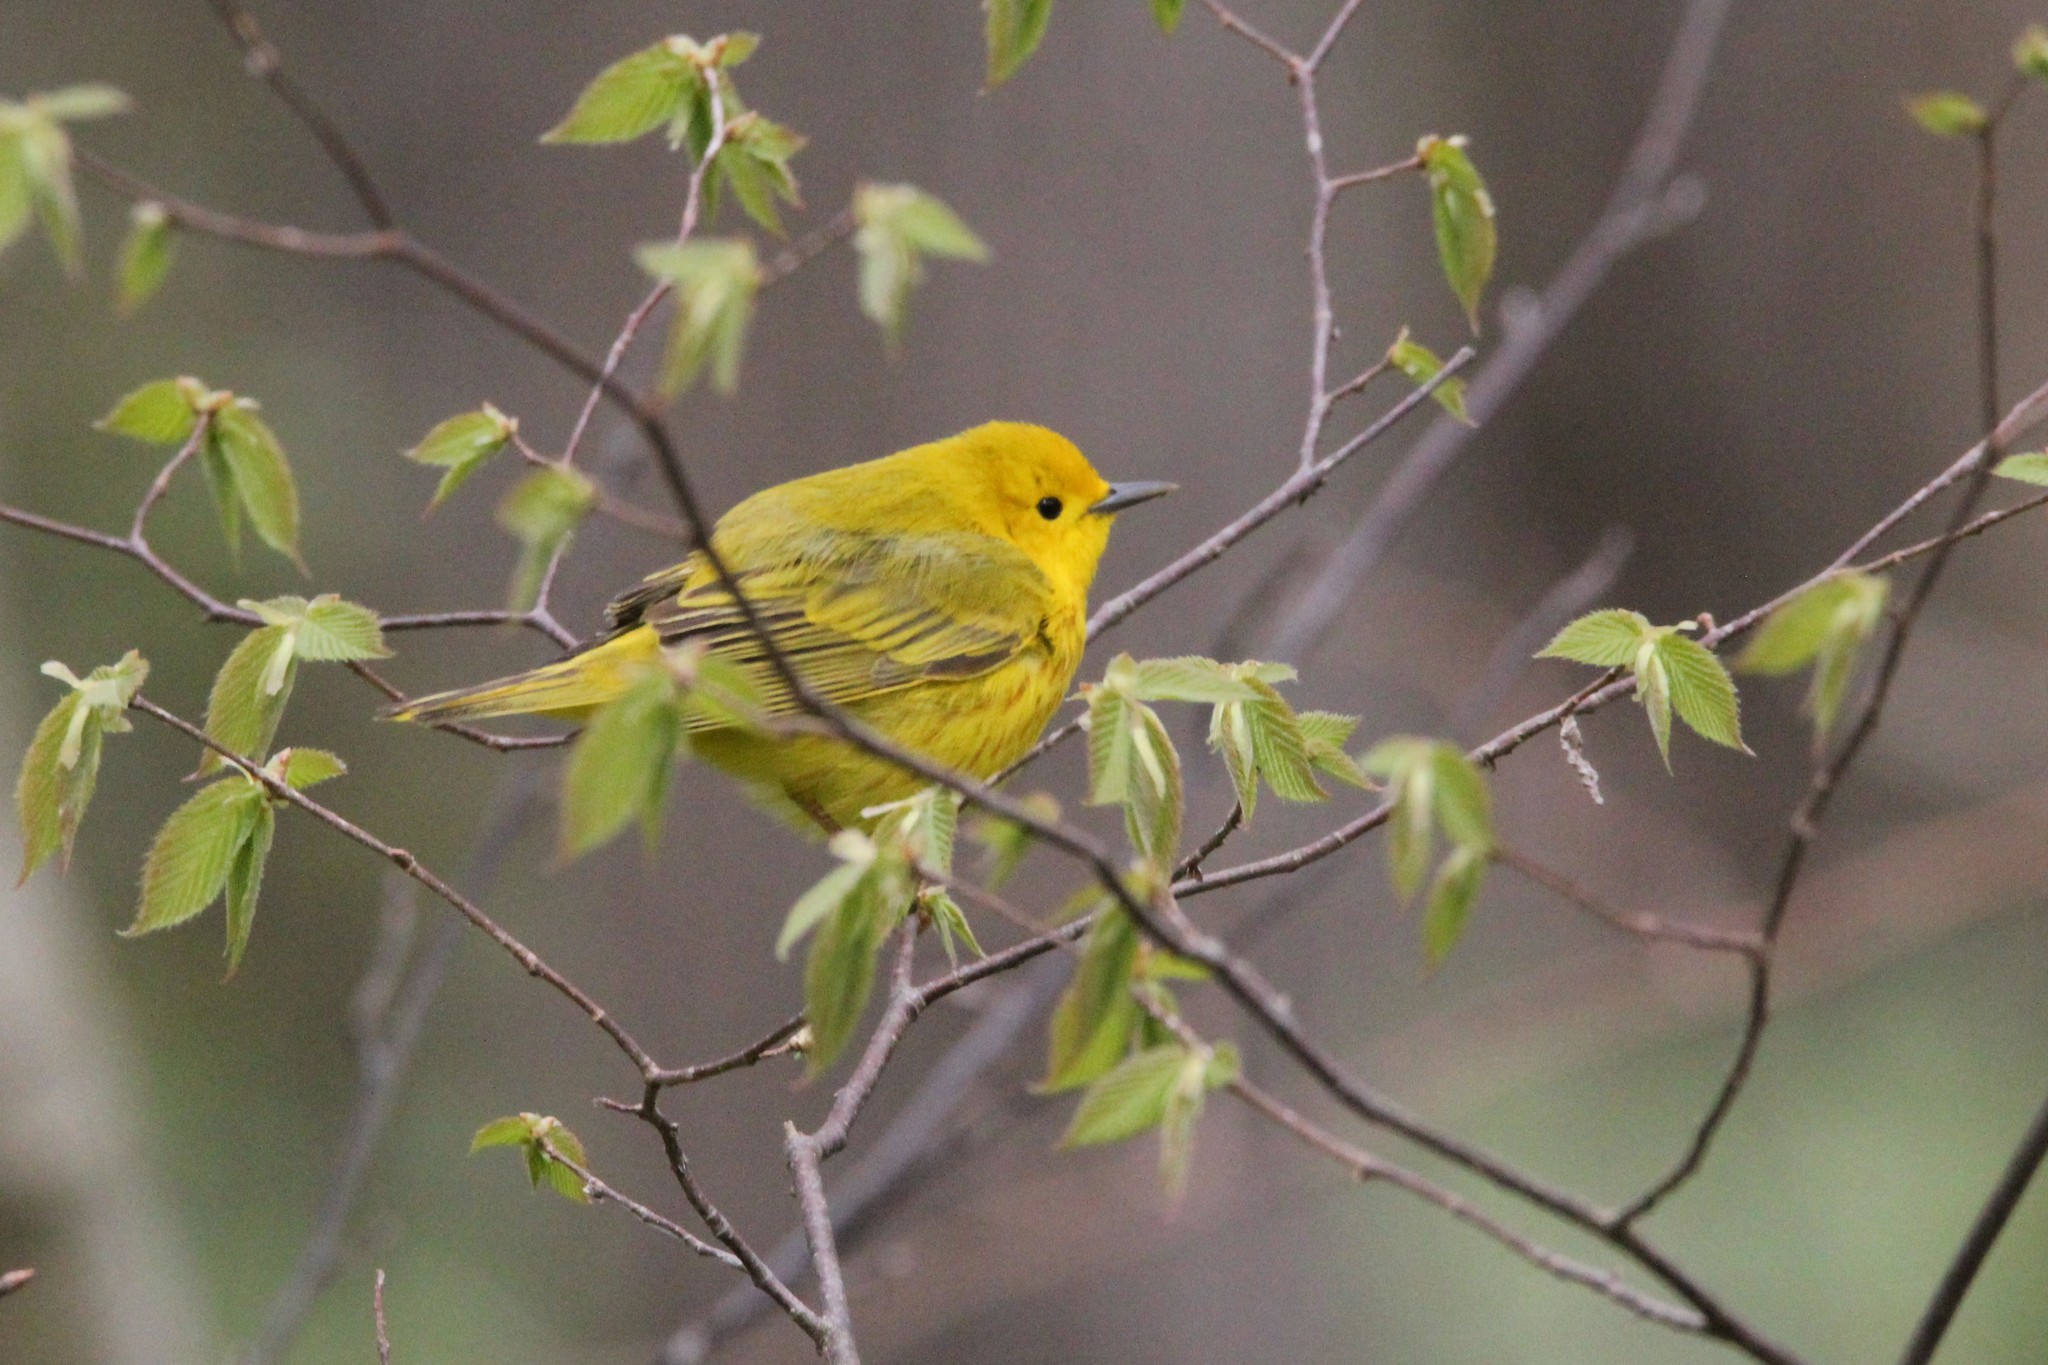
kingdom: Animalia
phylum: Chordata
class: Aves
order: Passeriformes
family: Parulidae
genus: Setophaga
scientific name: Setophaga petechia
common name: Yellow warbler
